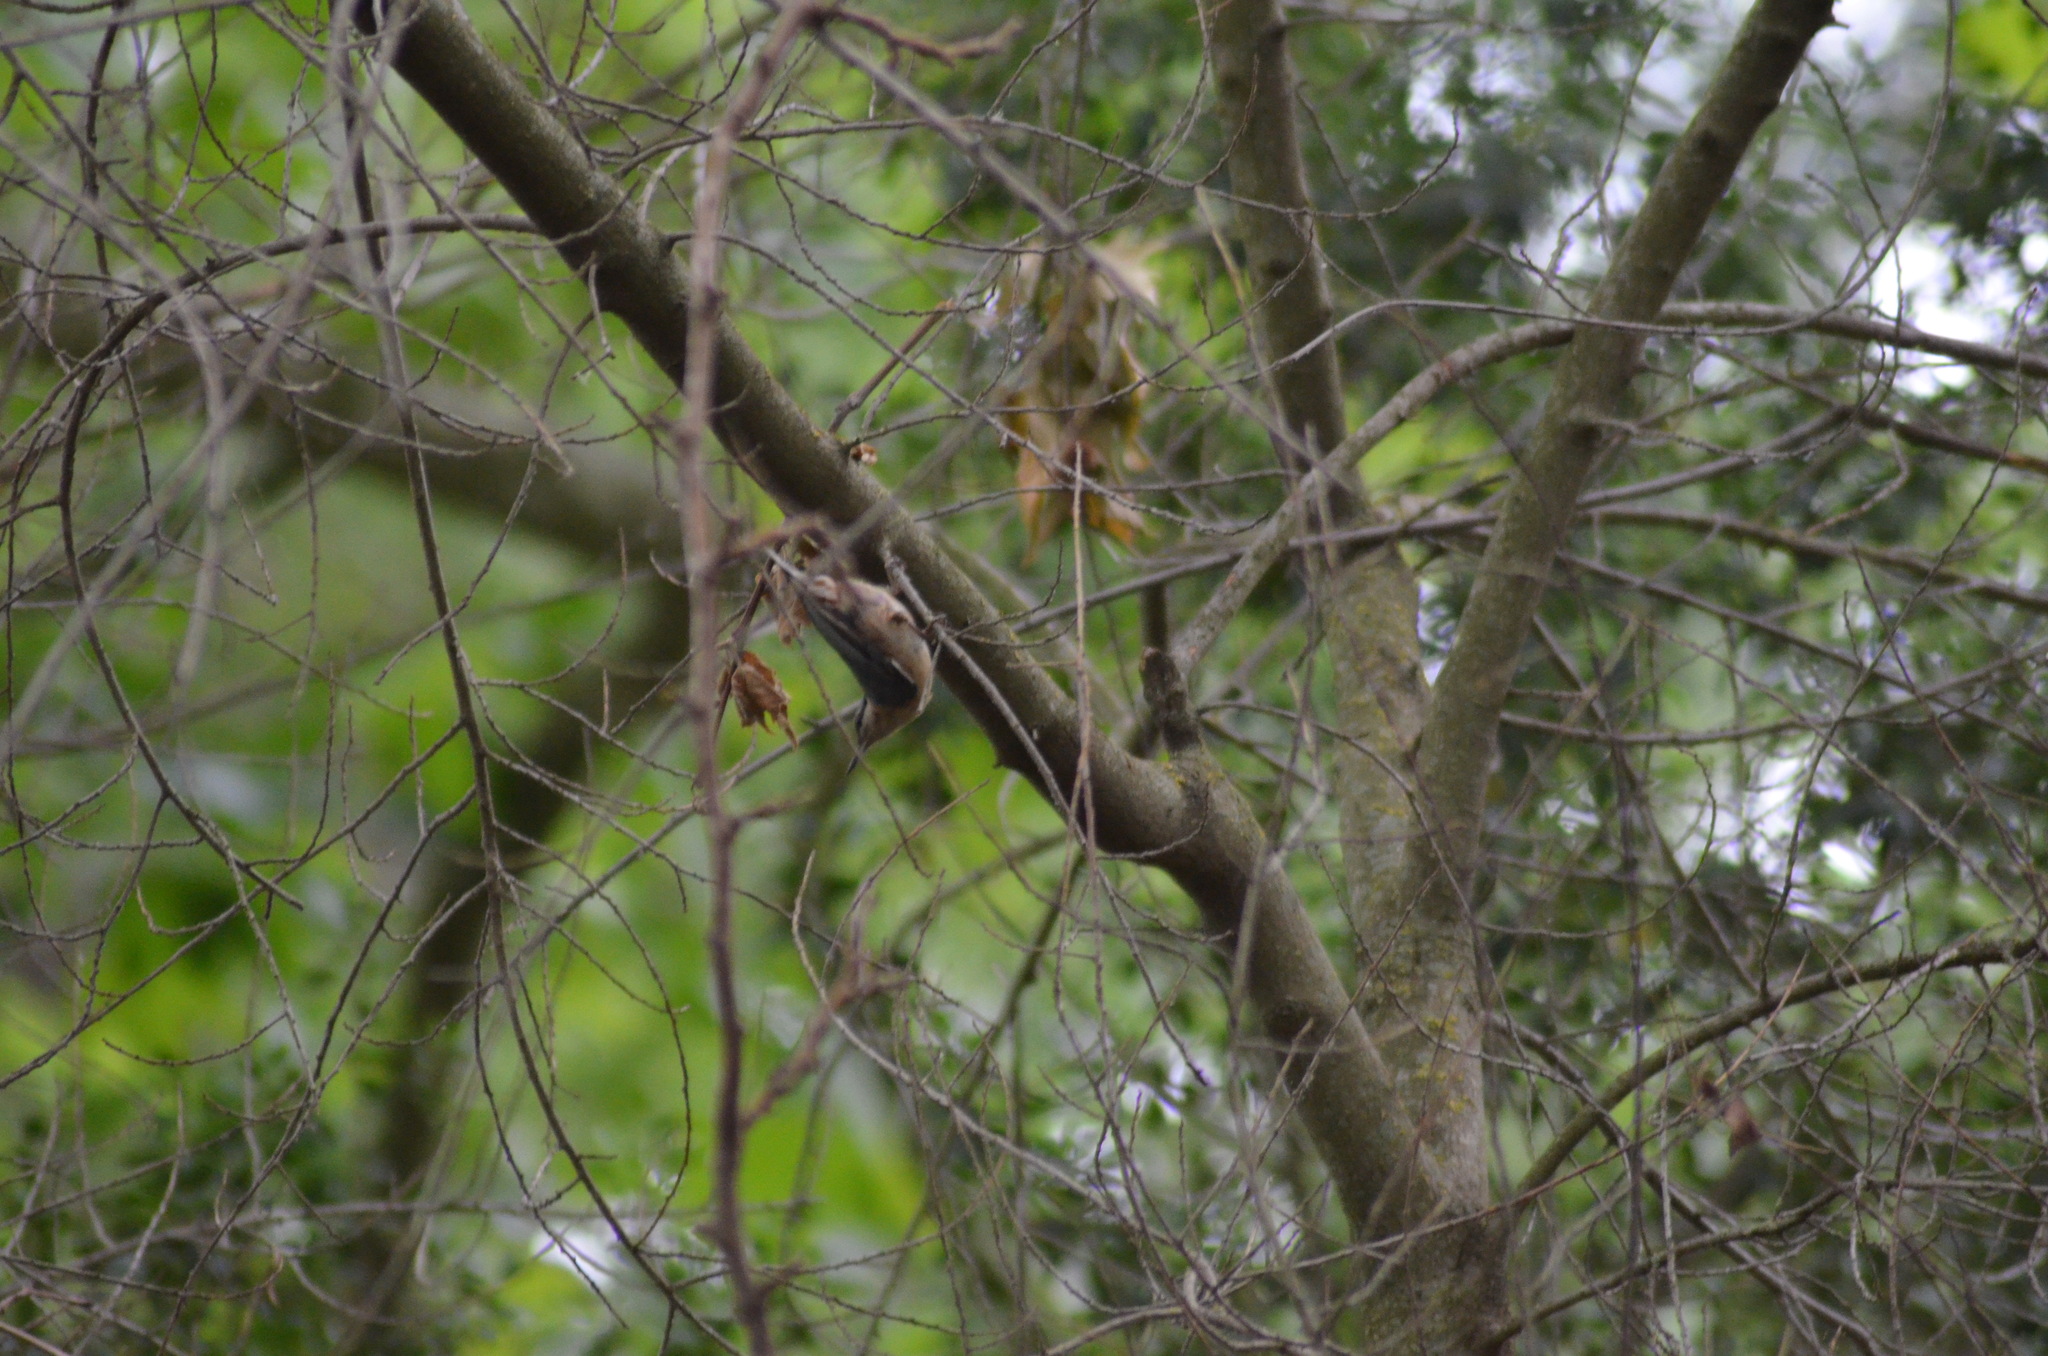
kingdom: Animalia
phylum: Chordata
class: Aves
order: Passeriformes
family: Sittidae
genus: Sitta
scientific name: Sitta europaea
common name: Eurasian nuthatch
